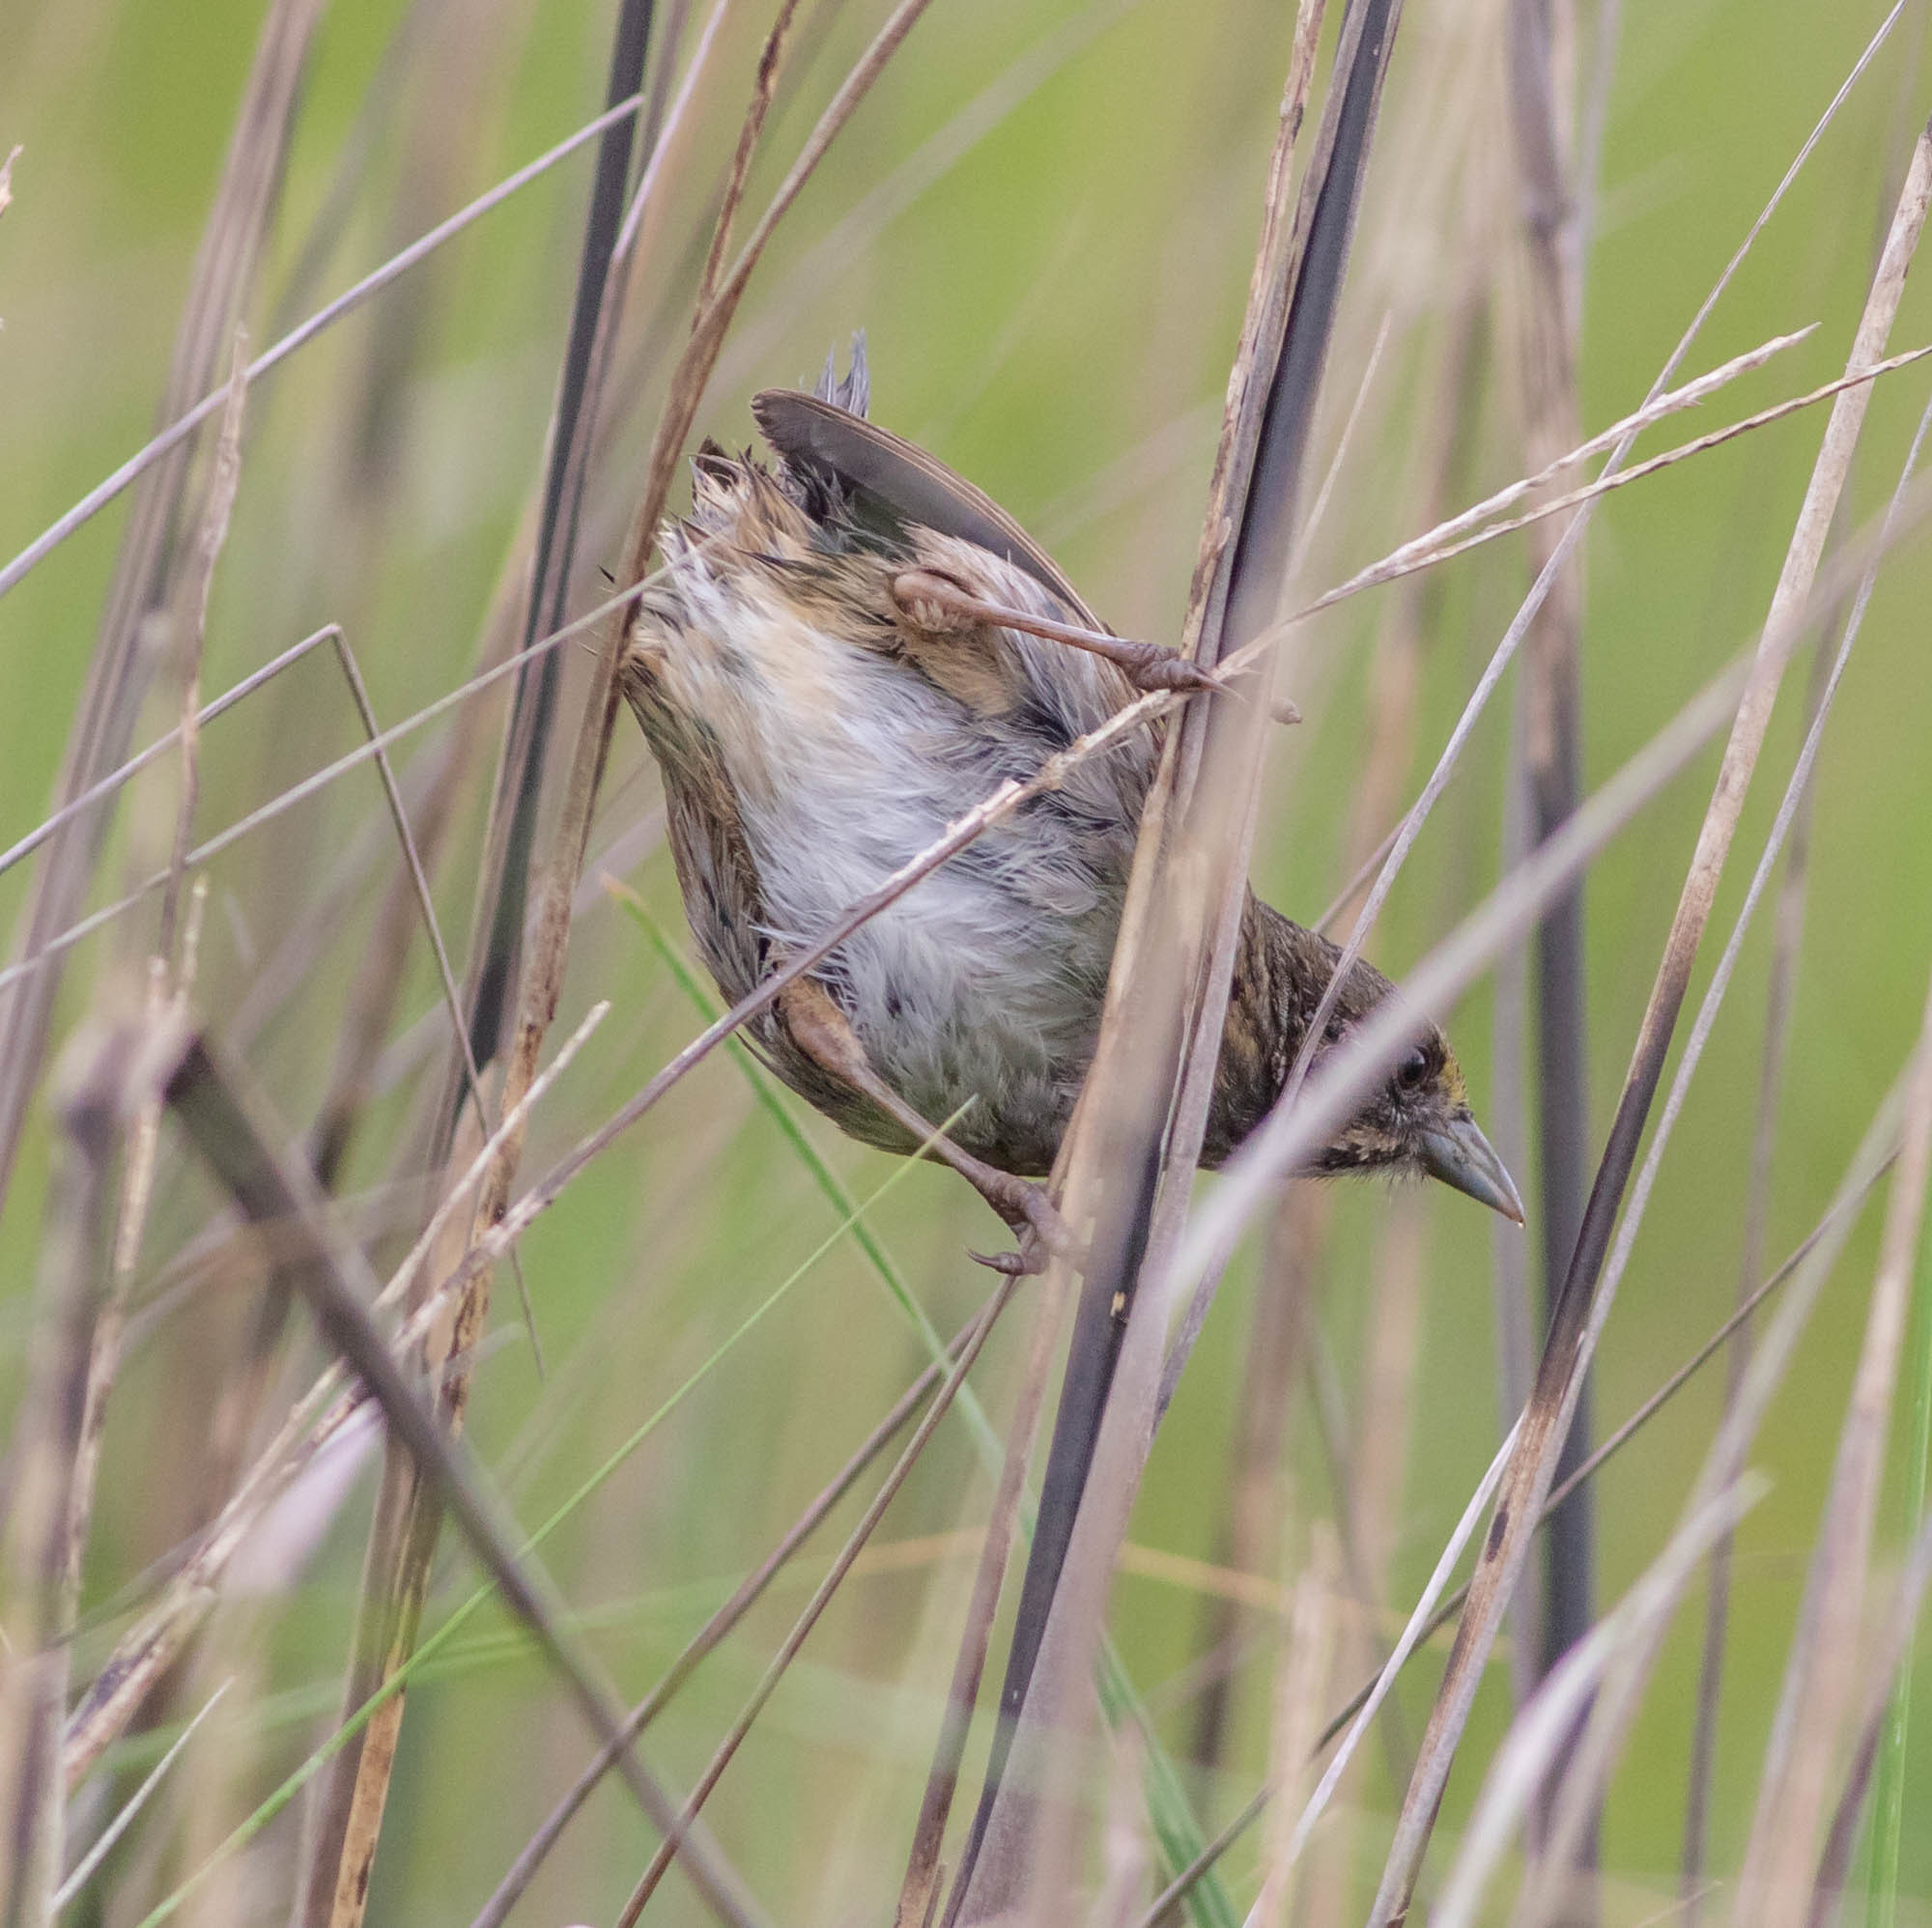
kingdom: Animalia
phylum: Chordata
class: Aves
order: Passeriformes
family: Passerellidae
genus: Ammospiza
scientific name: Ammospiza maritima
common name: Seaside sparrow
